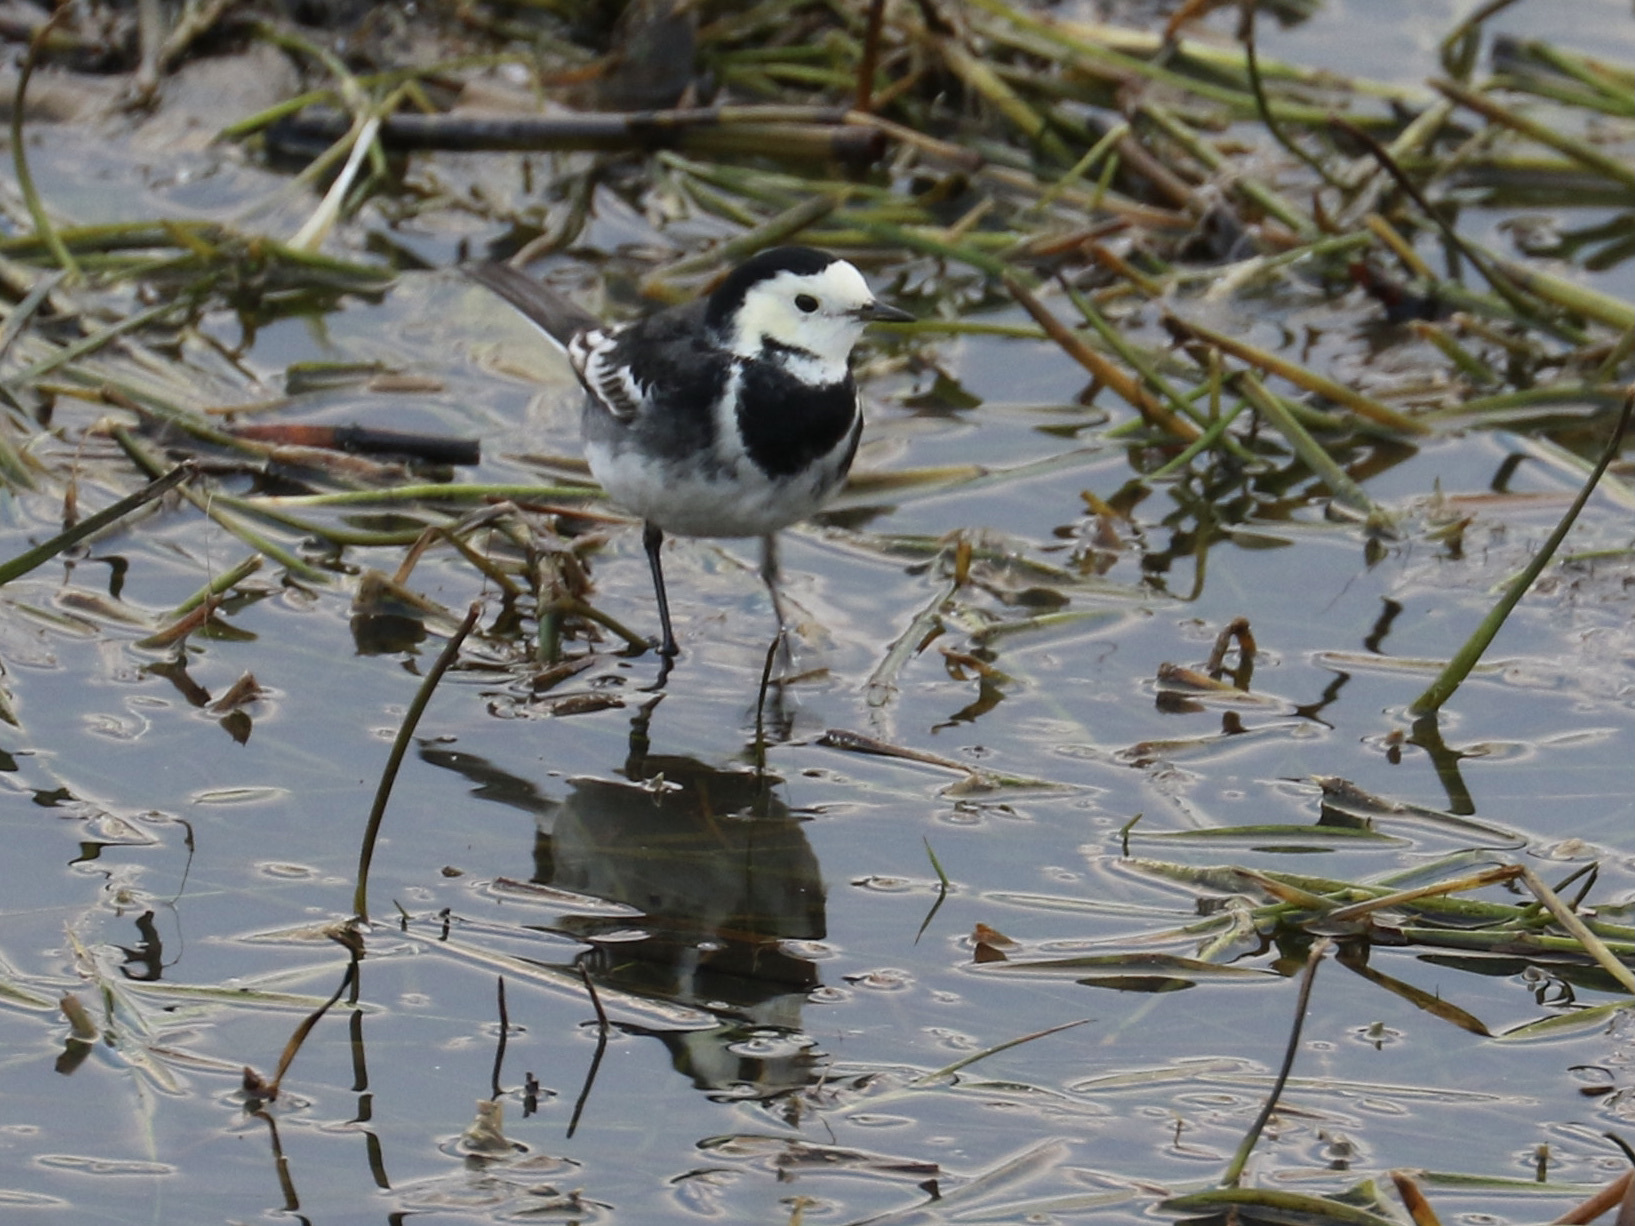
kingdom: Animalia
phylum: Chordata
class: Aves
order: Passeriformes
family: Motacillidae
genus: Motacilla
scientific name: Motacilla alba
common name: White wagtail
